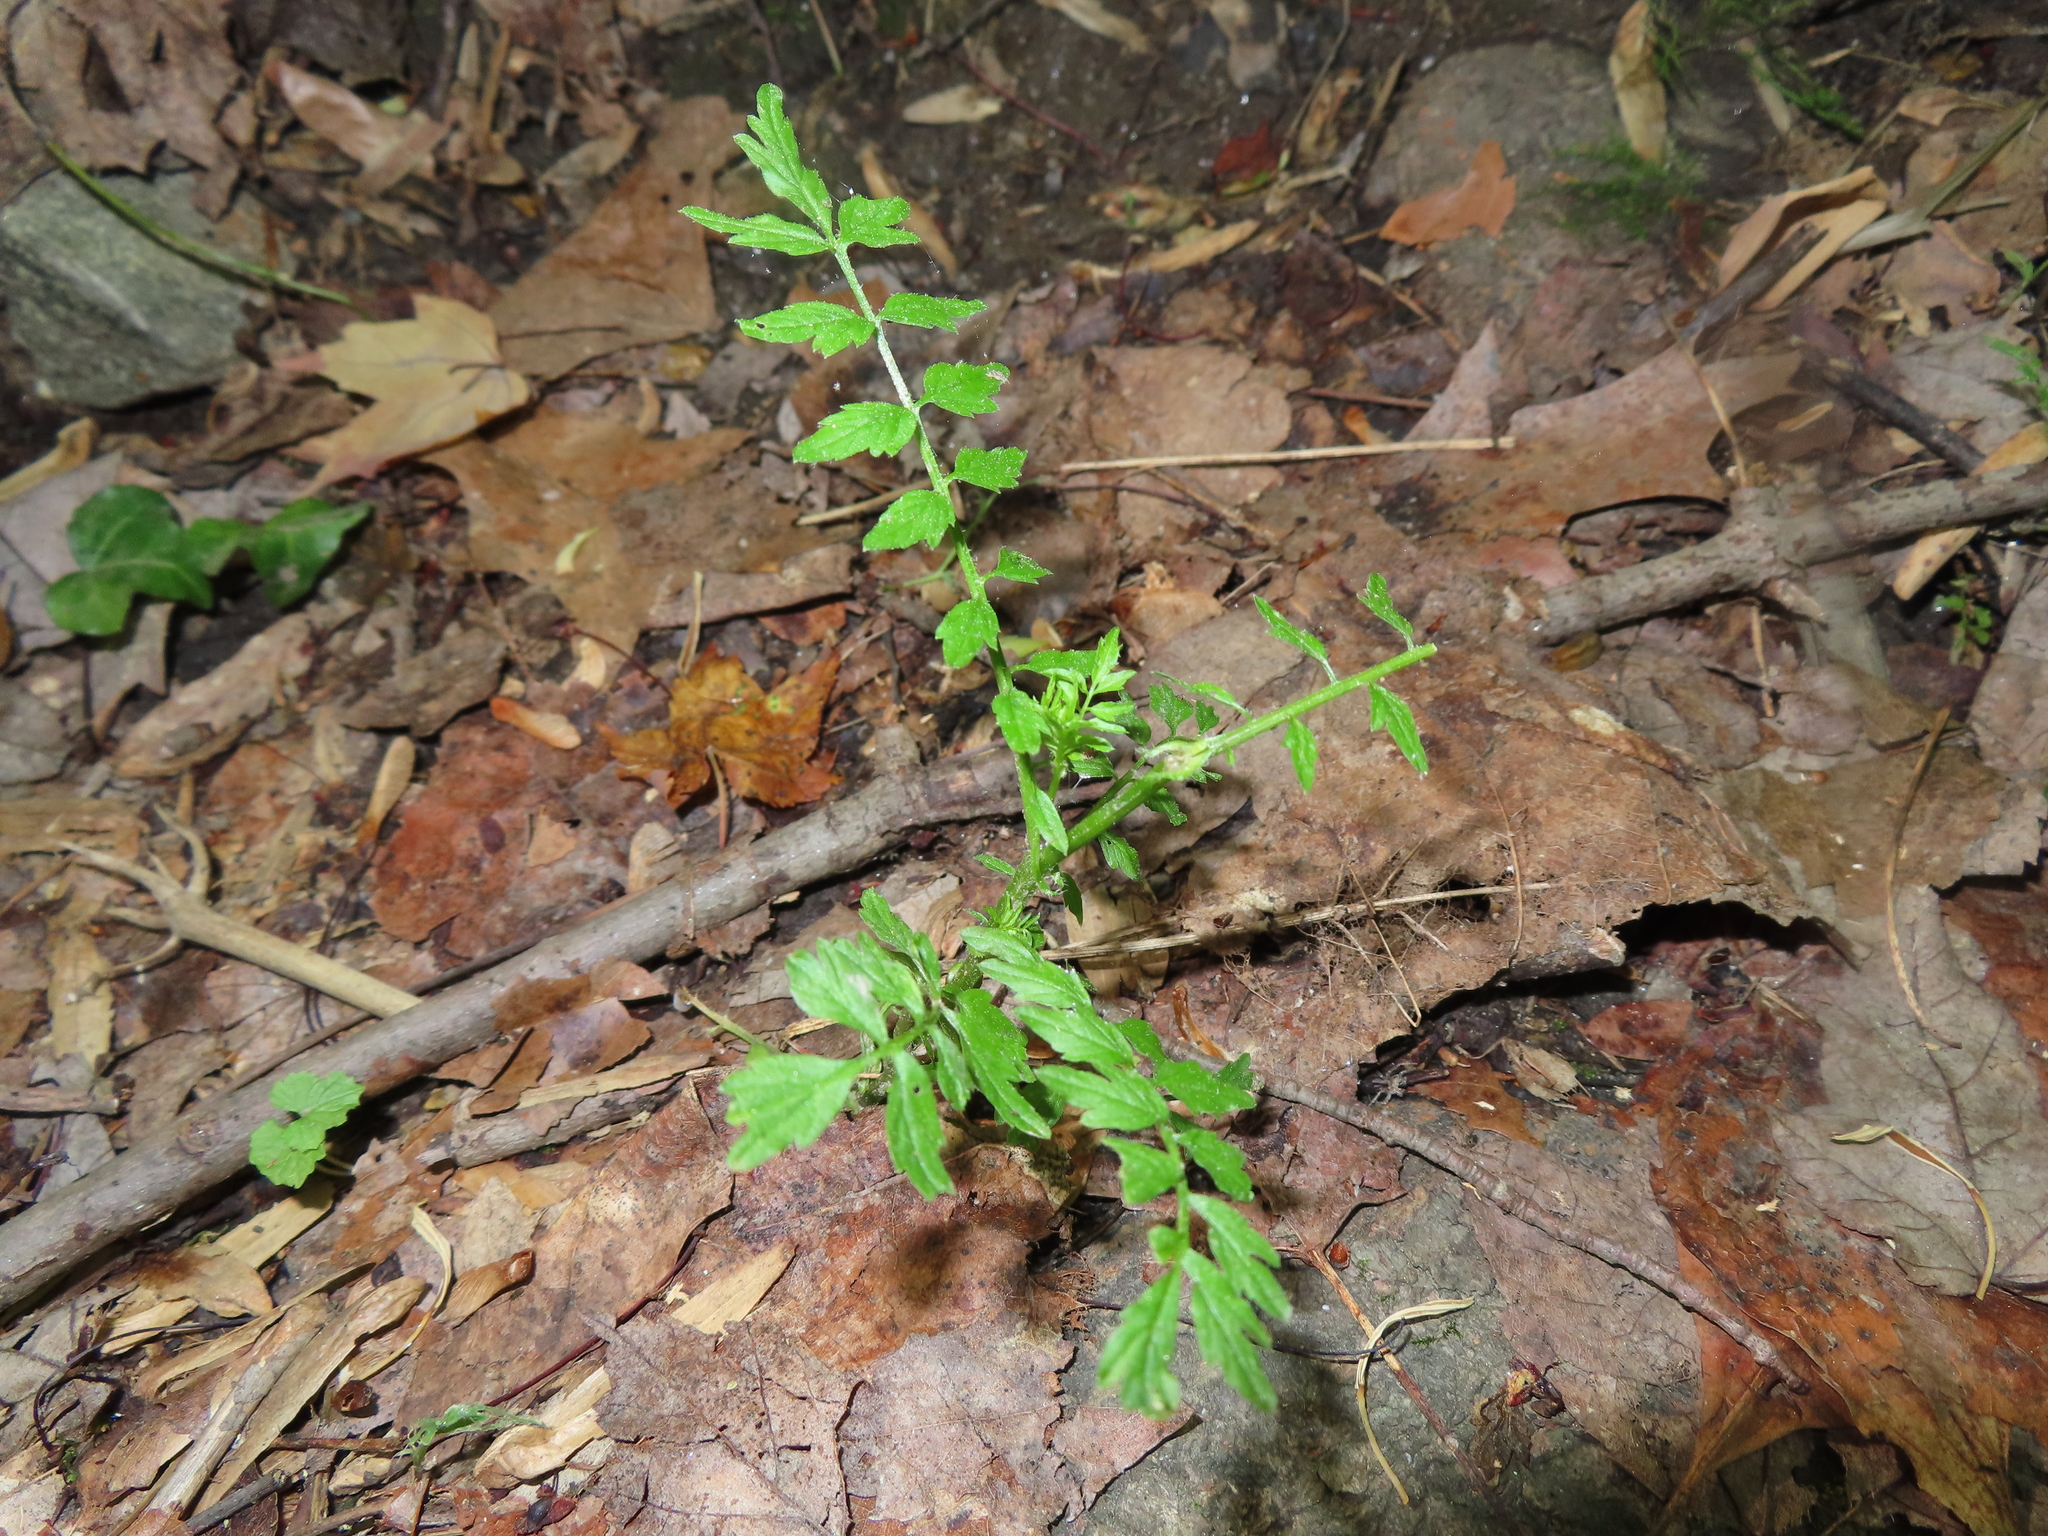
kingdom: Plantae
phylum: Tracheophyta
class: Magnoliopsida
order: Brassicales
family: Brassicaceae
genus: Cardamine
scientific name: Cardamine impatiens
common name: Narrow-leaved bitter-cress
